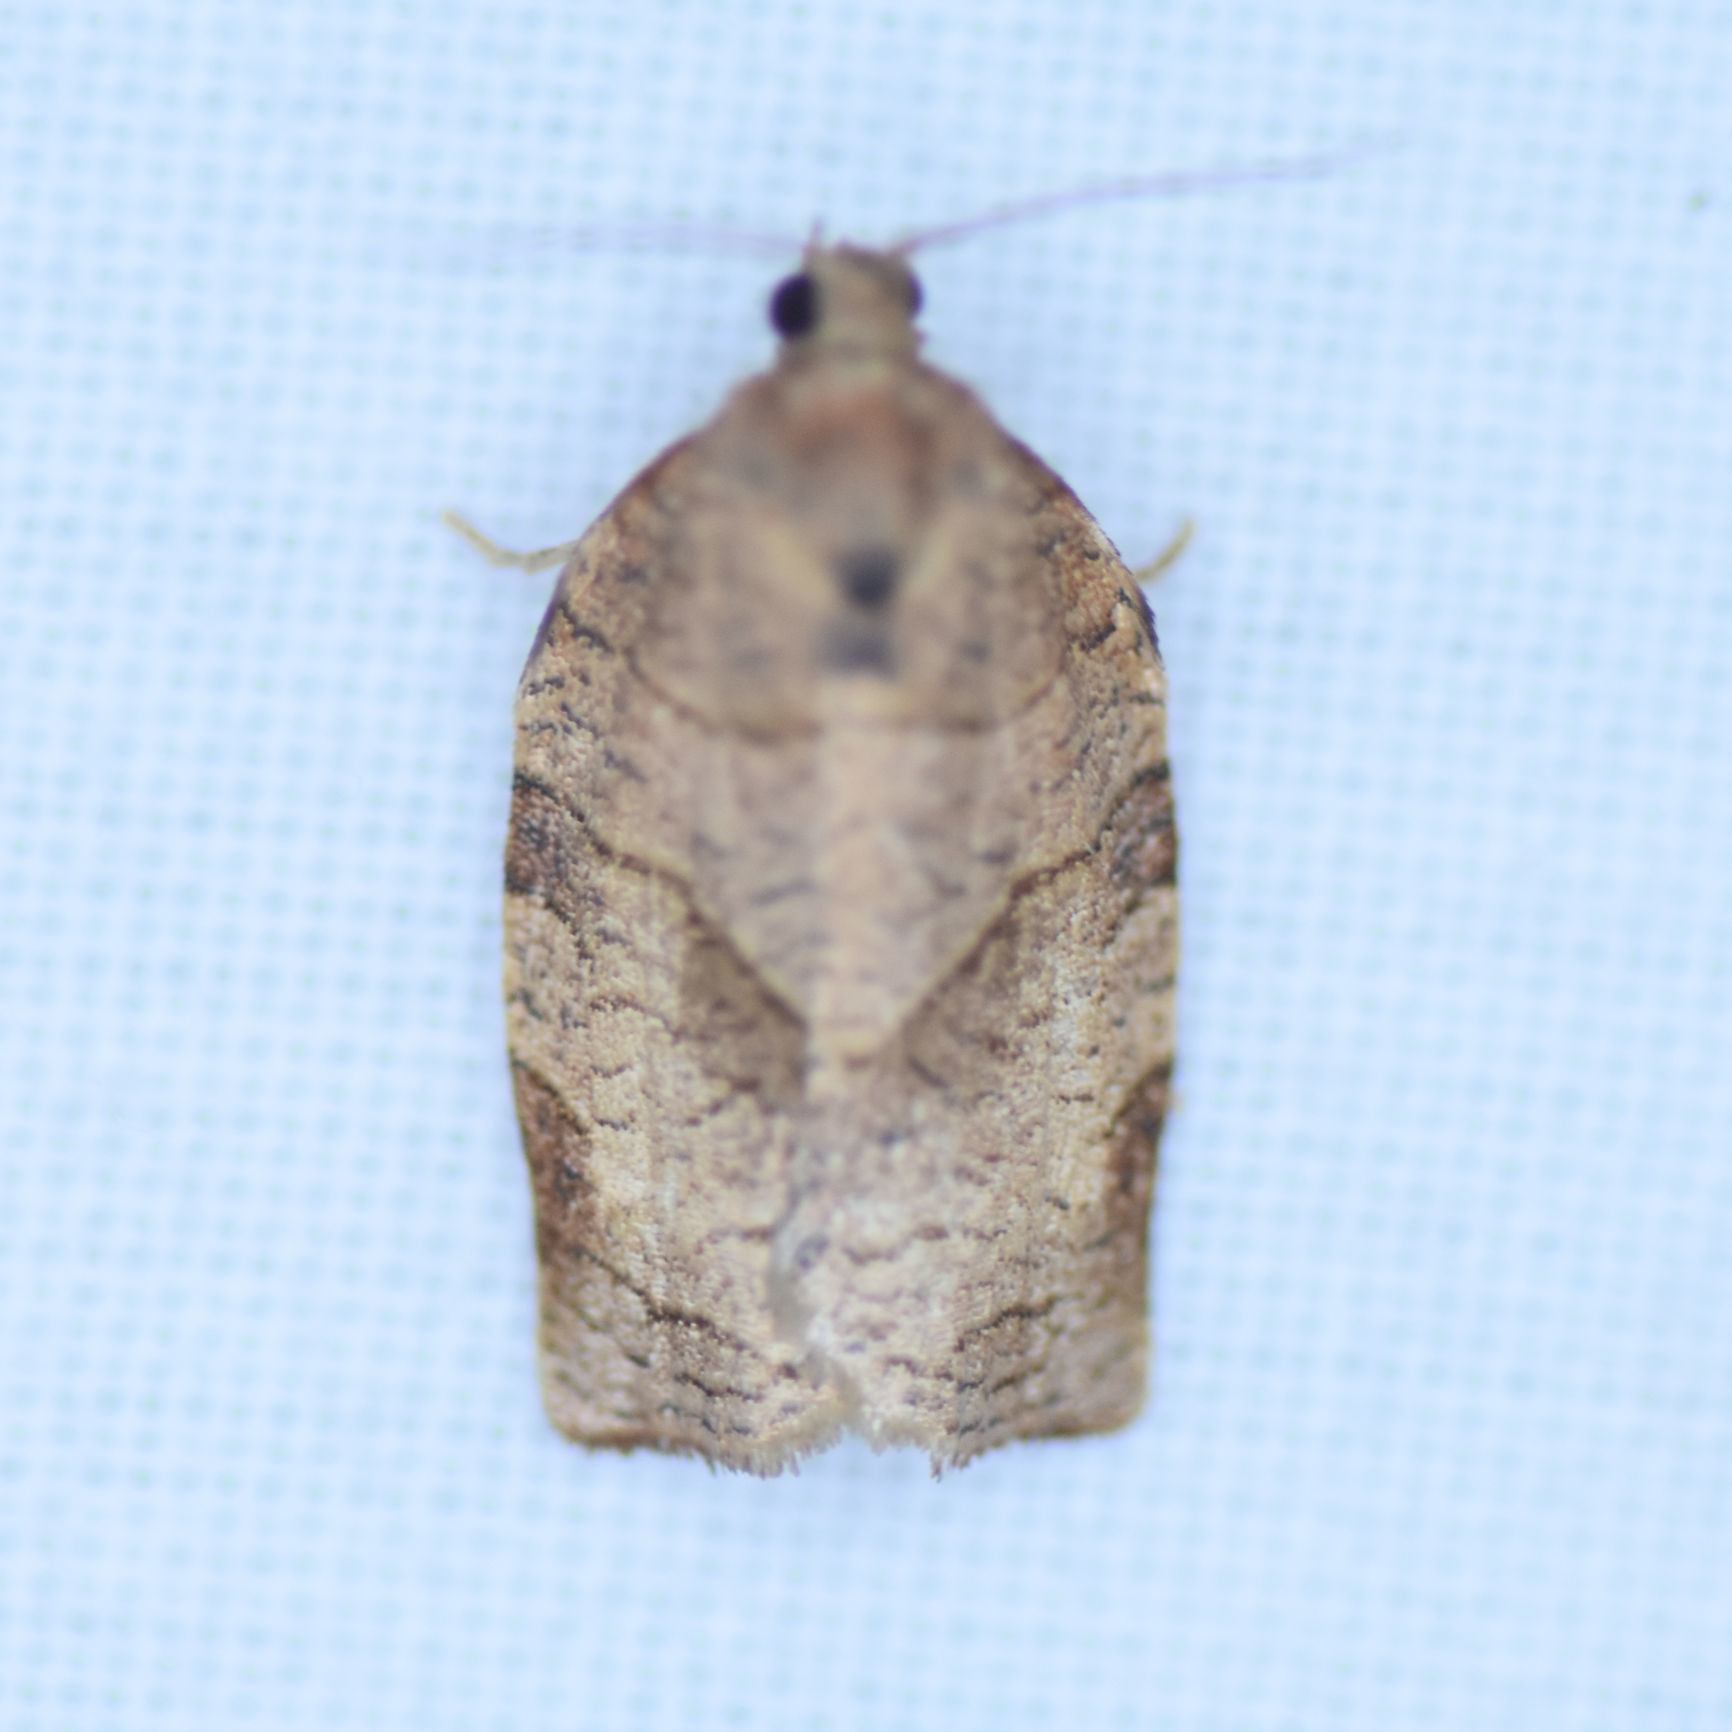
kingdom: Animalia
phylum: Arthropoda
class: Insecta
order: Lepidoptera
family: Tortricidae
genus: Choristoneura
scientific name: Choristoneura rosaceana
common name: Oblique-banded leafroller moth
